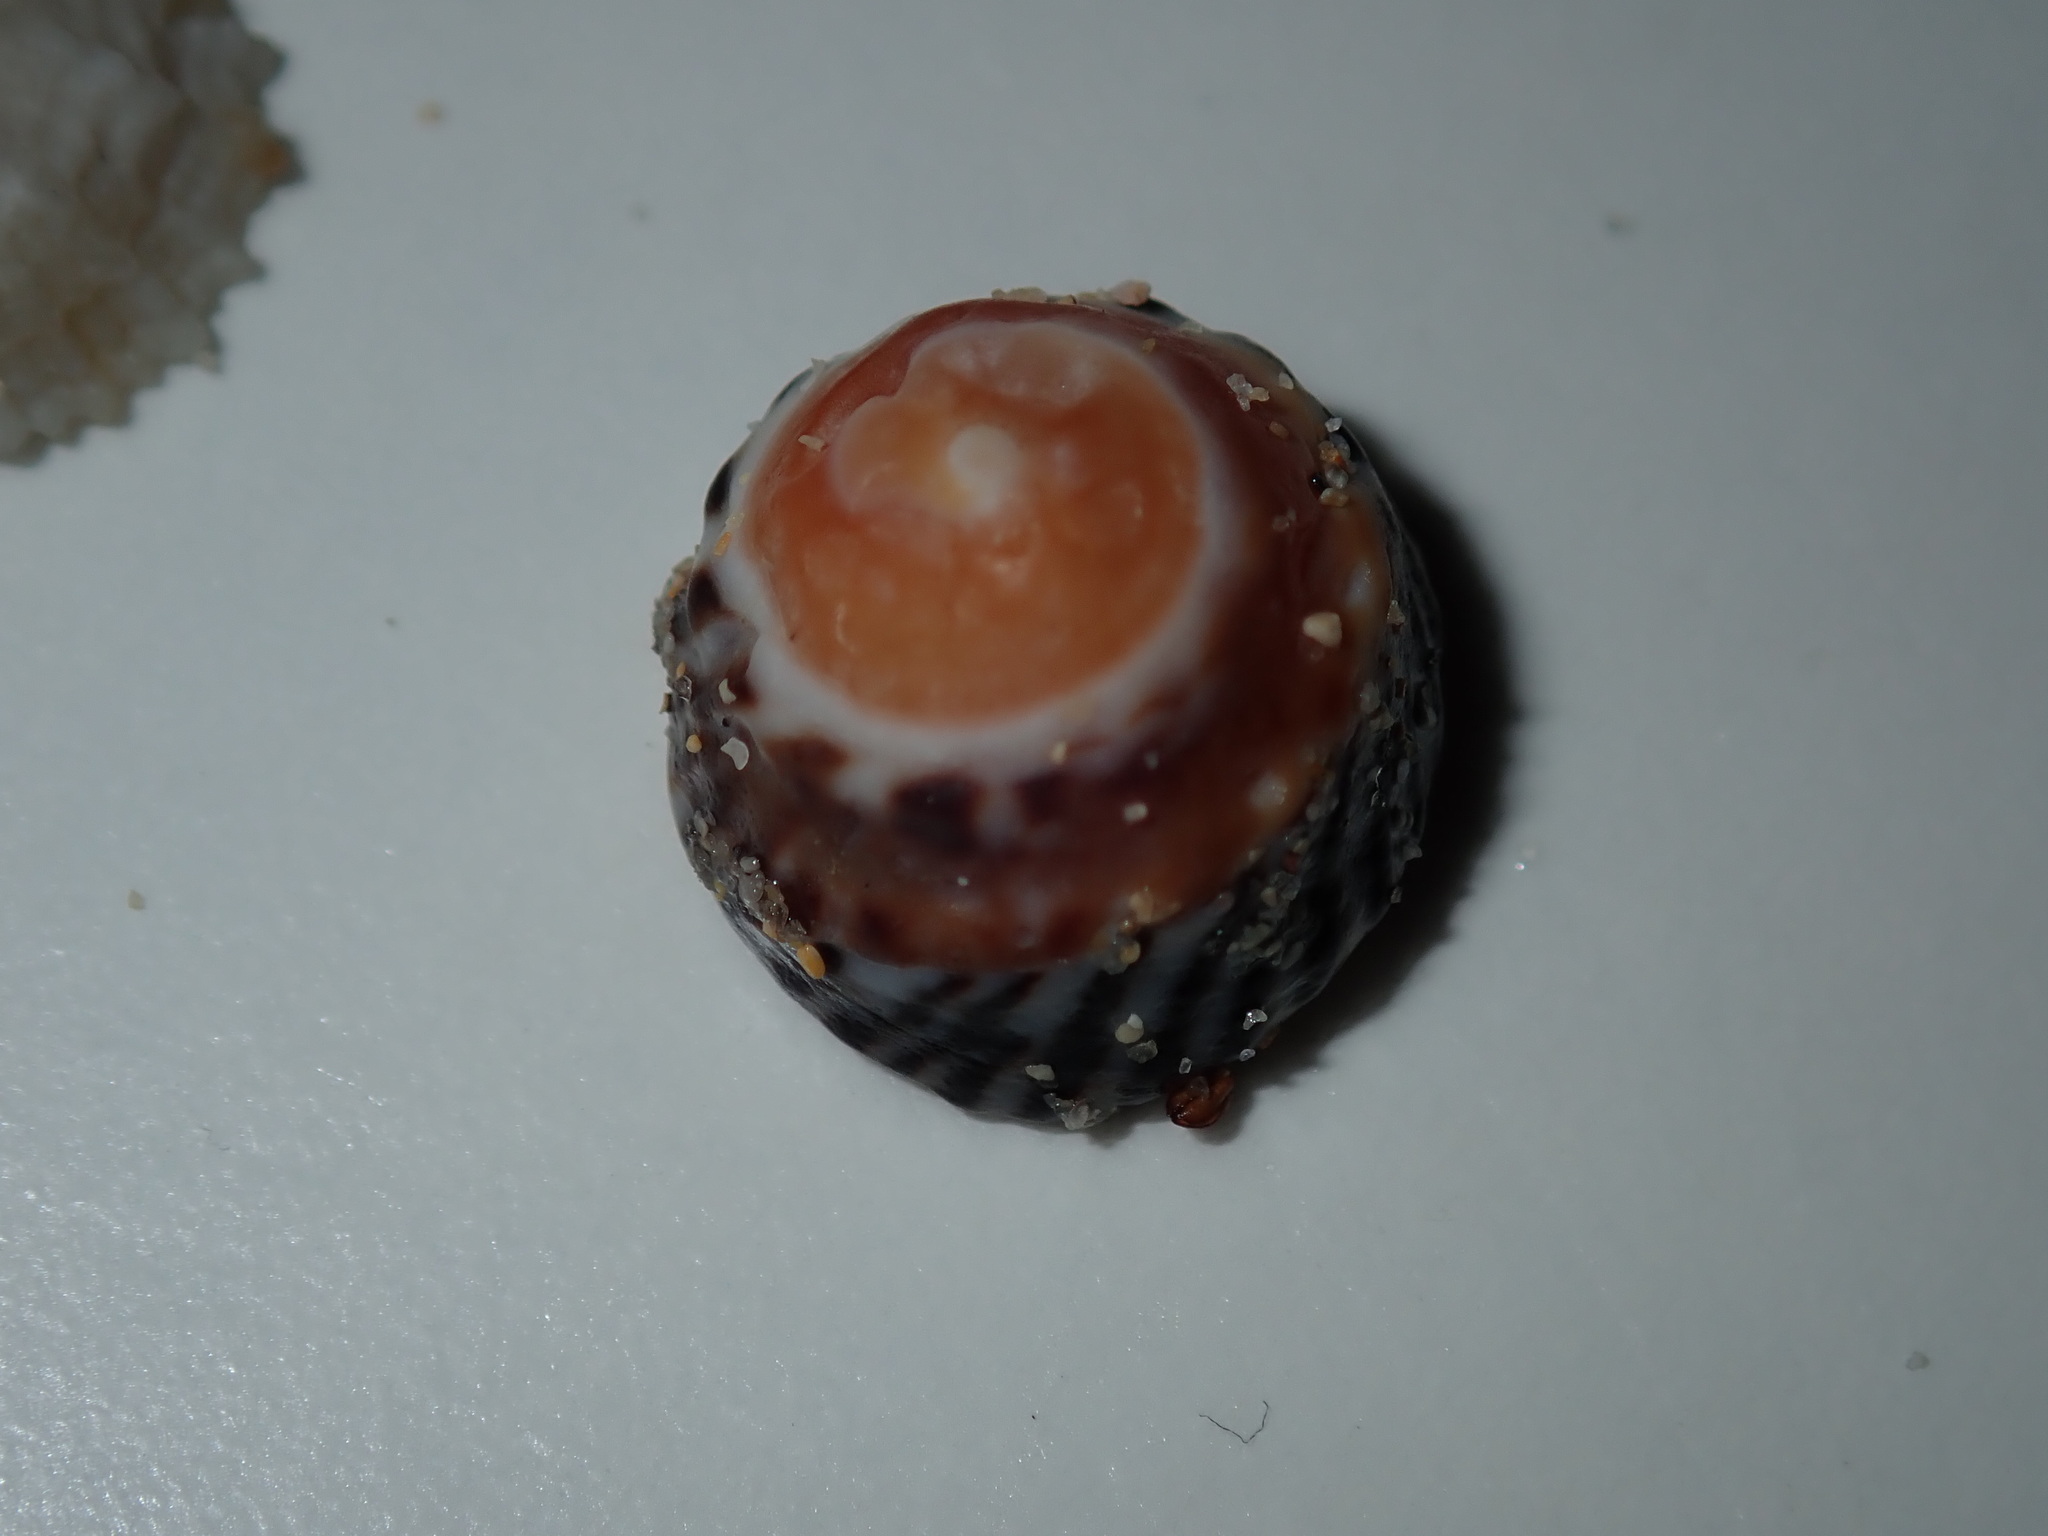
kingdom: Animalia
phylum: Mollusca
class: Gastropoda
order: Littorinimorpha
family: Littorinidae
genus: Bembicium
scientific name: Bembicium nanum
